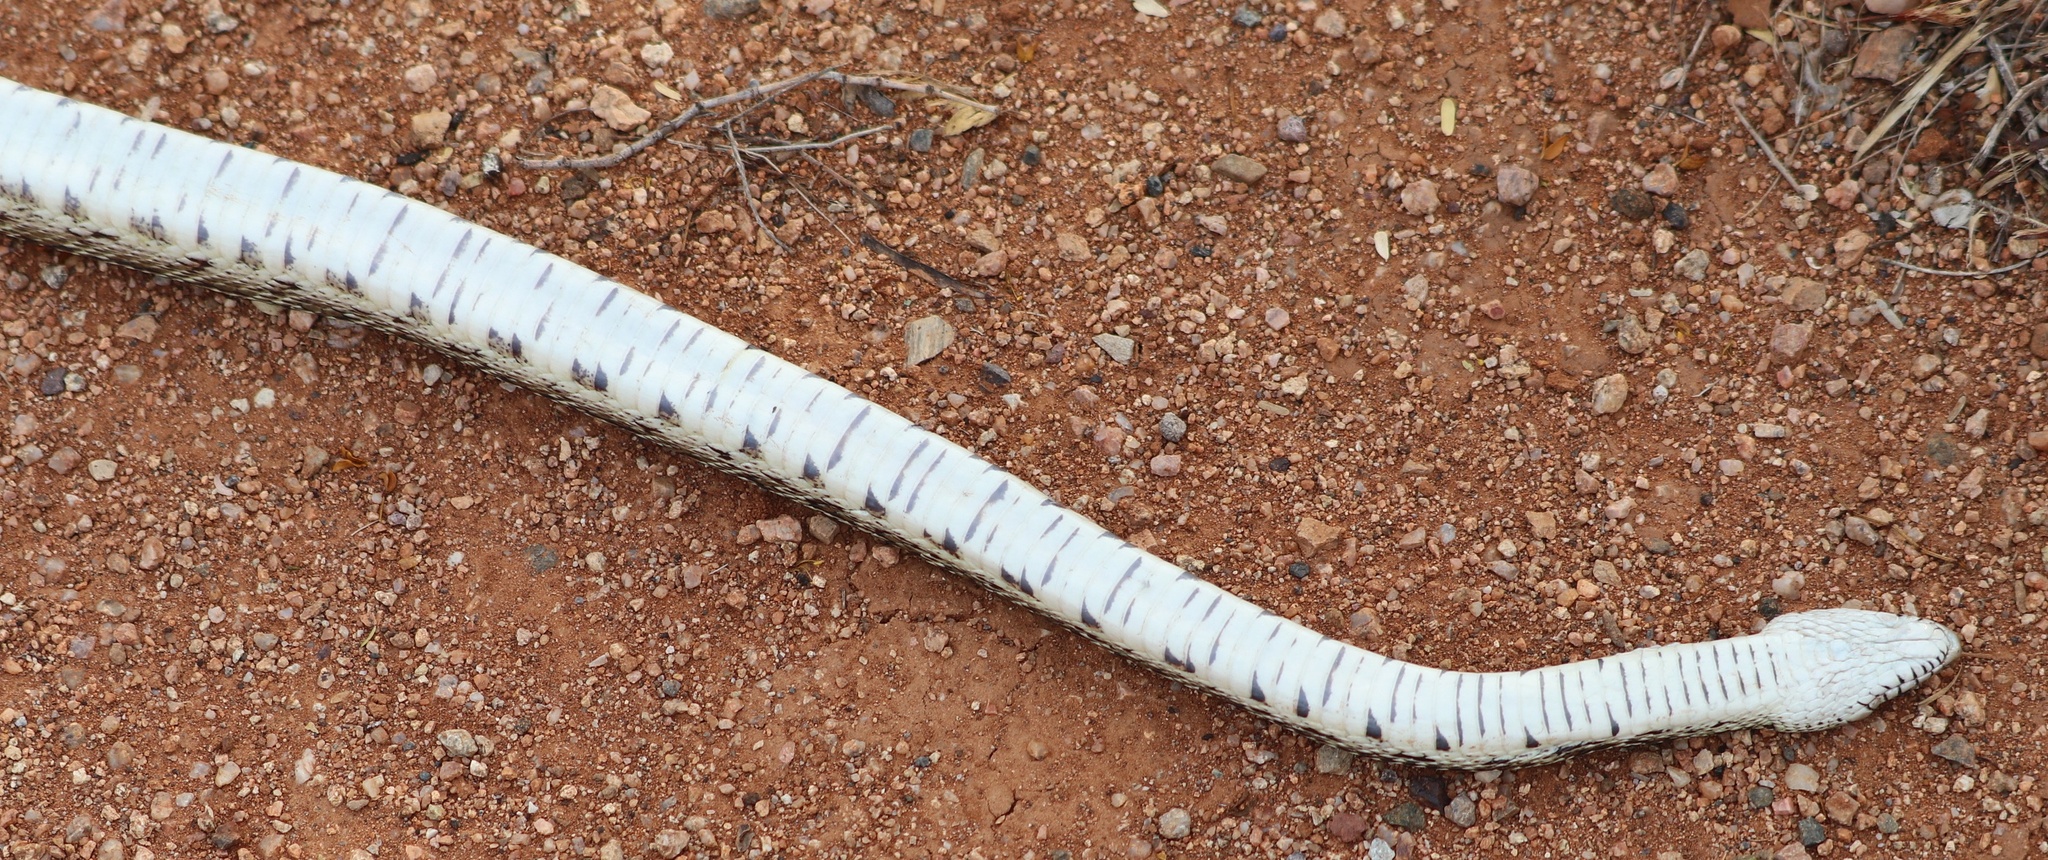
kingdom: Animalia
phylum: Chordata
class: Squamata
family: Colubridae
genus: Pituophis
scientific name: Pituophis catenifer
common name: Gopher snake
